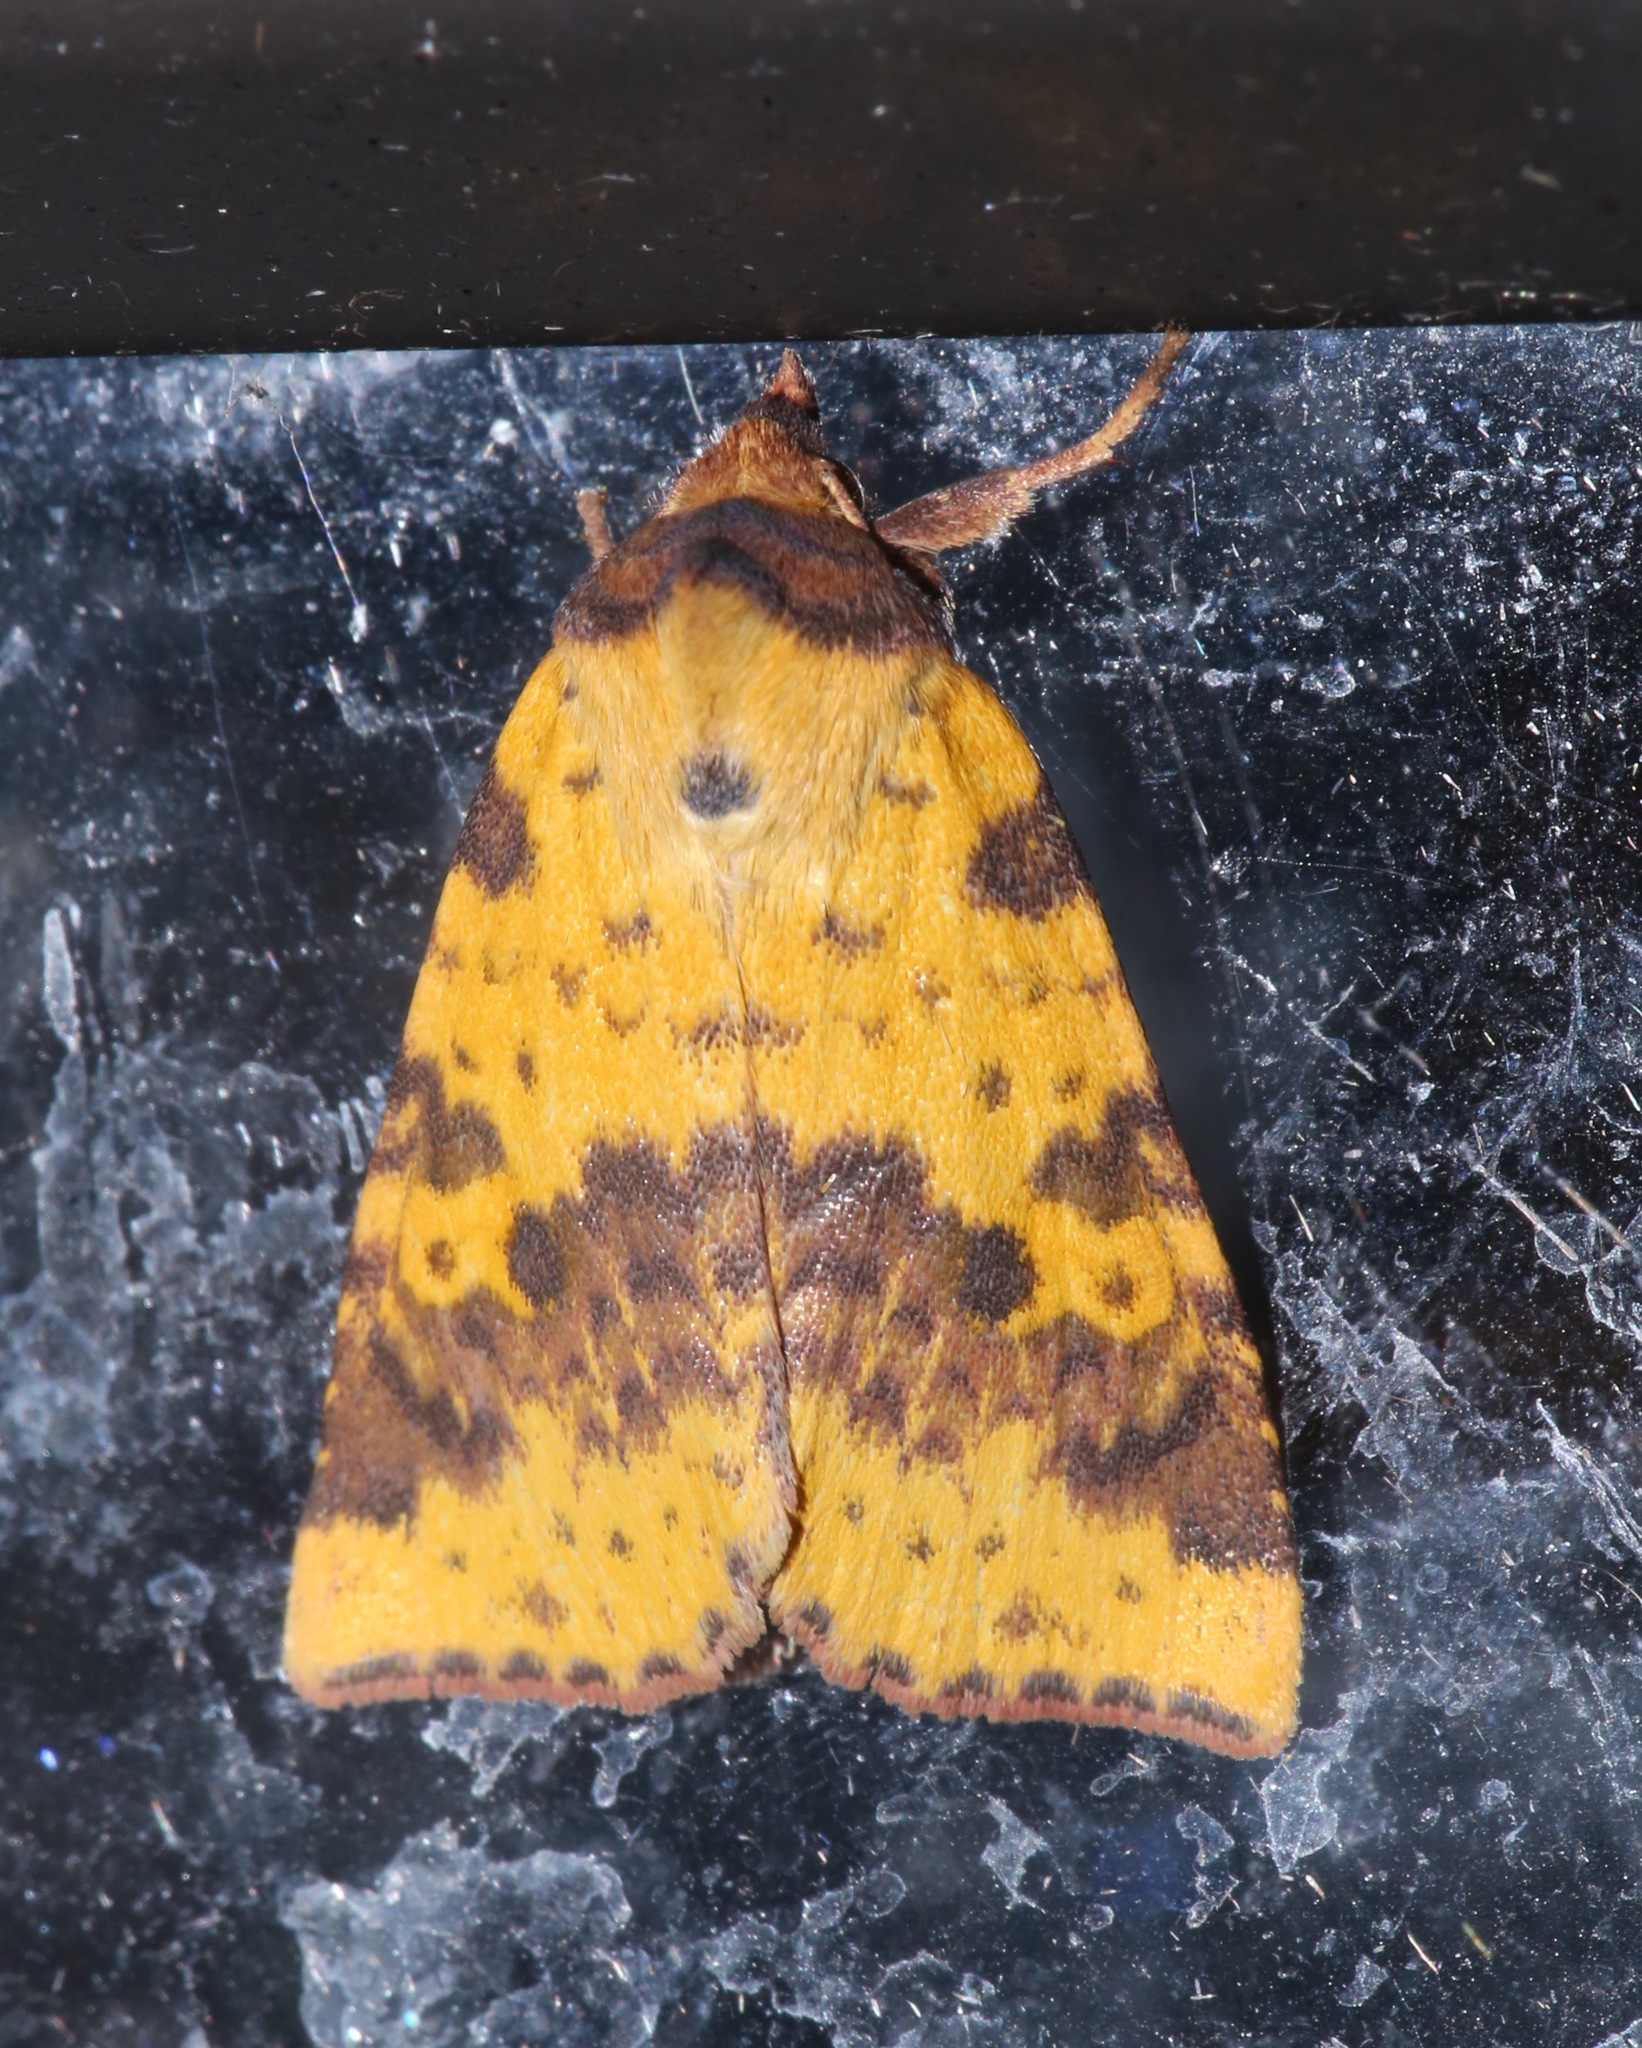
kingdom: Animalia
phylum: Arthropoda
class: Insecta
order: Lepidoptera
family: Noctuidae
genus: Xanthia
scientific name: Xanthia tatago
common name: Pink-banded sallow
